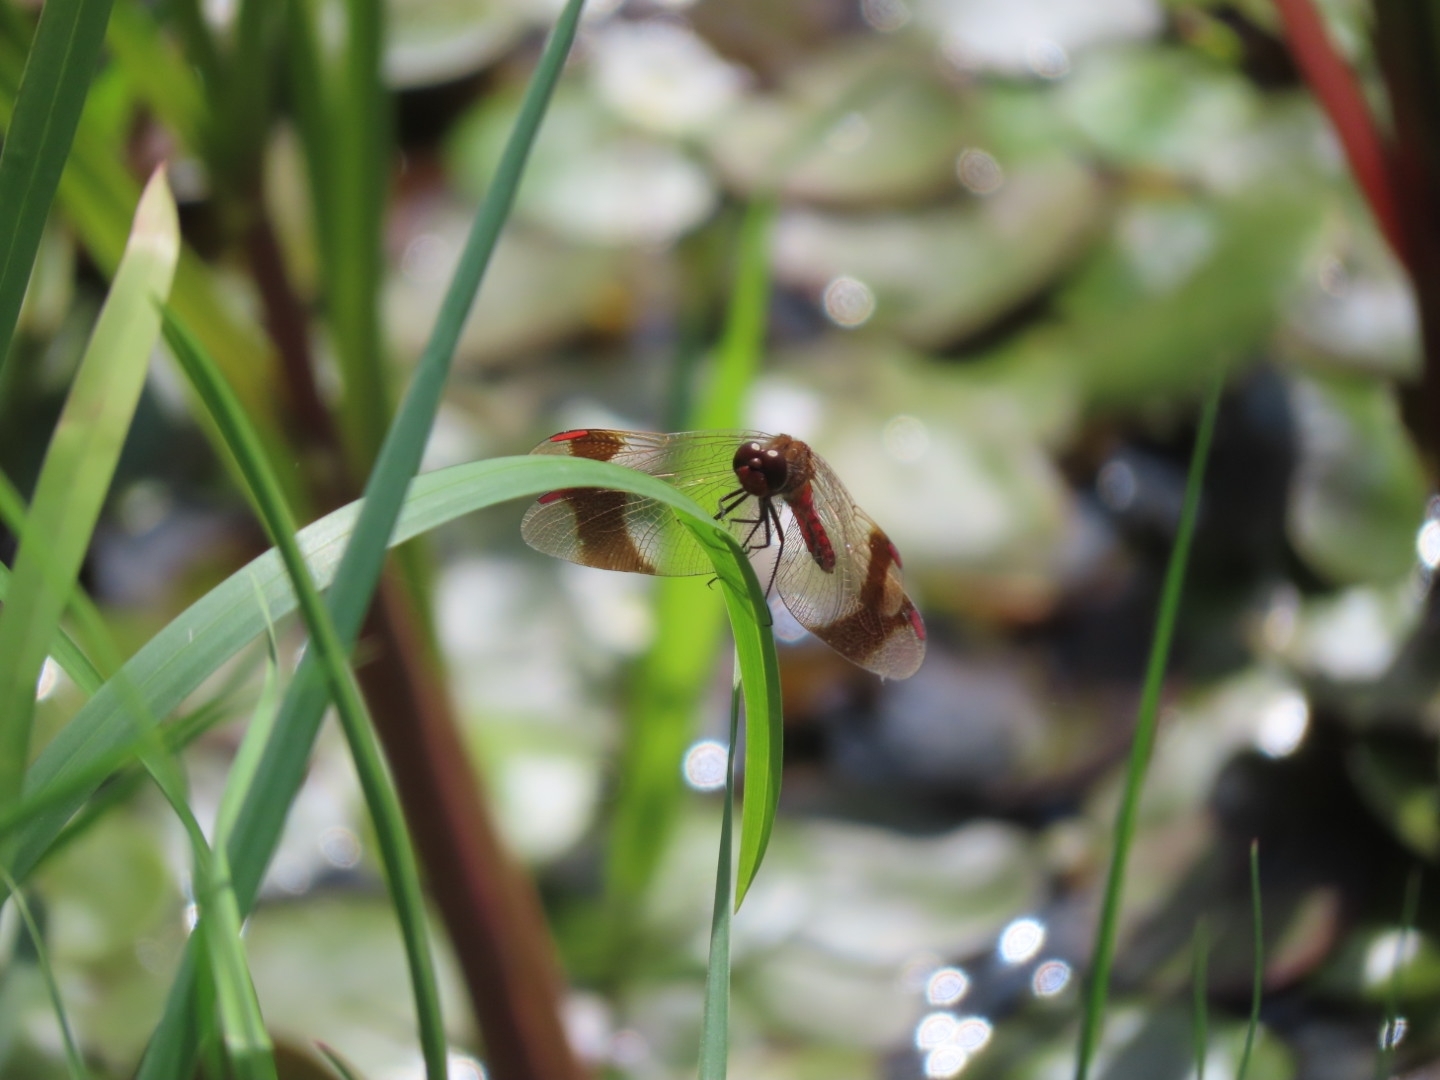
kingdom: Animalia
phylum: Arthropoda
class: Insecta
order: Odonata
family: Libellulidae
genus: Sympetrum
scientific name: Sympetrum pedemontanum
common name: Banded darter
